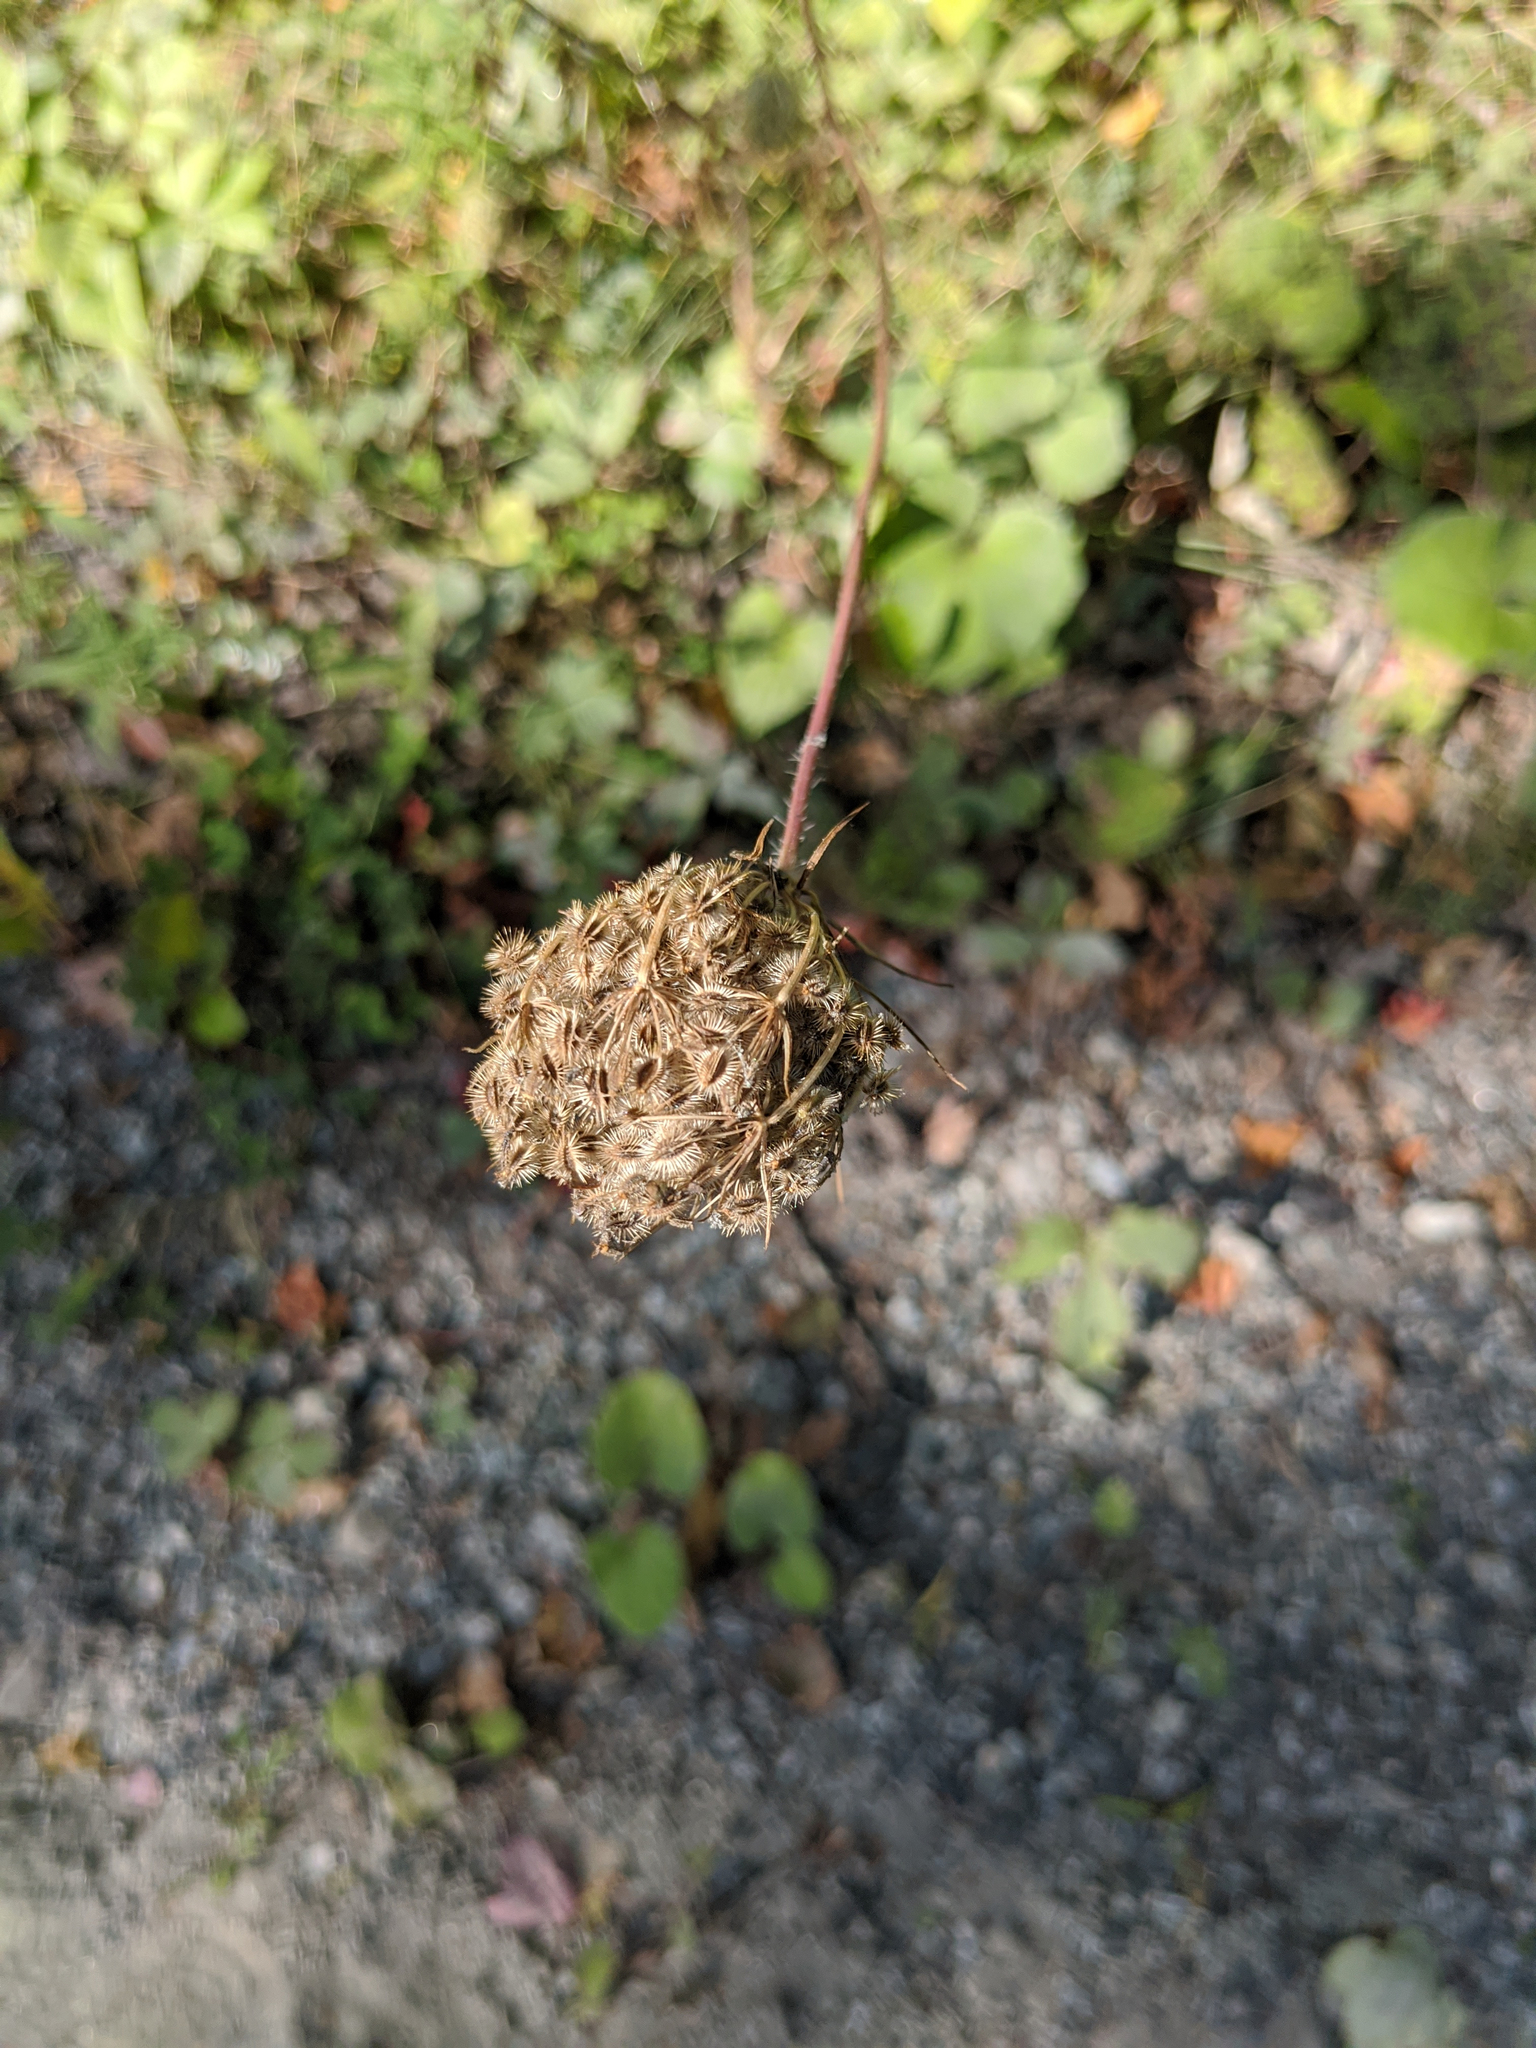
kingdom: Plantae
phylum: Tracheophyta
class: Magnoliopsida
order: Apiales
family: Apiaceae
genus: Daucus
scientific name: Daucus carota
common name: Wild carrot
